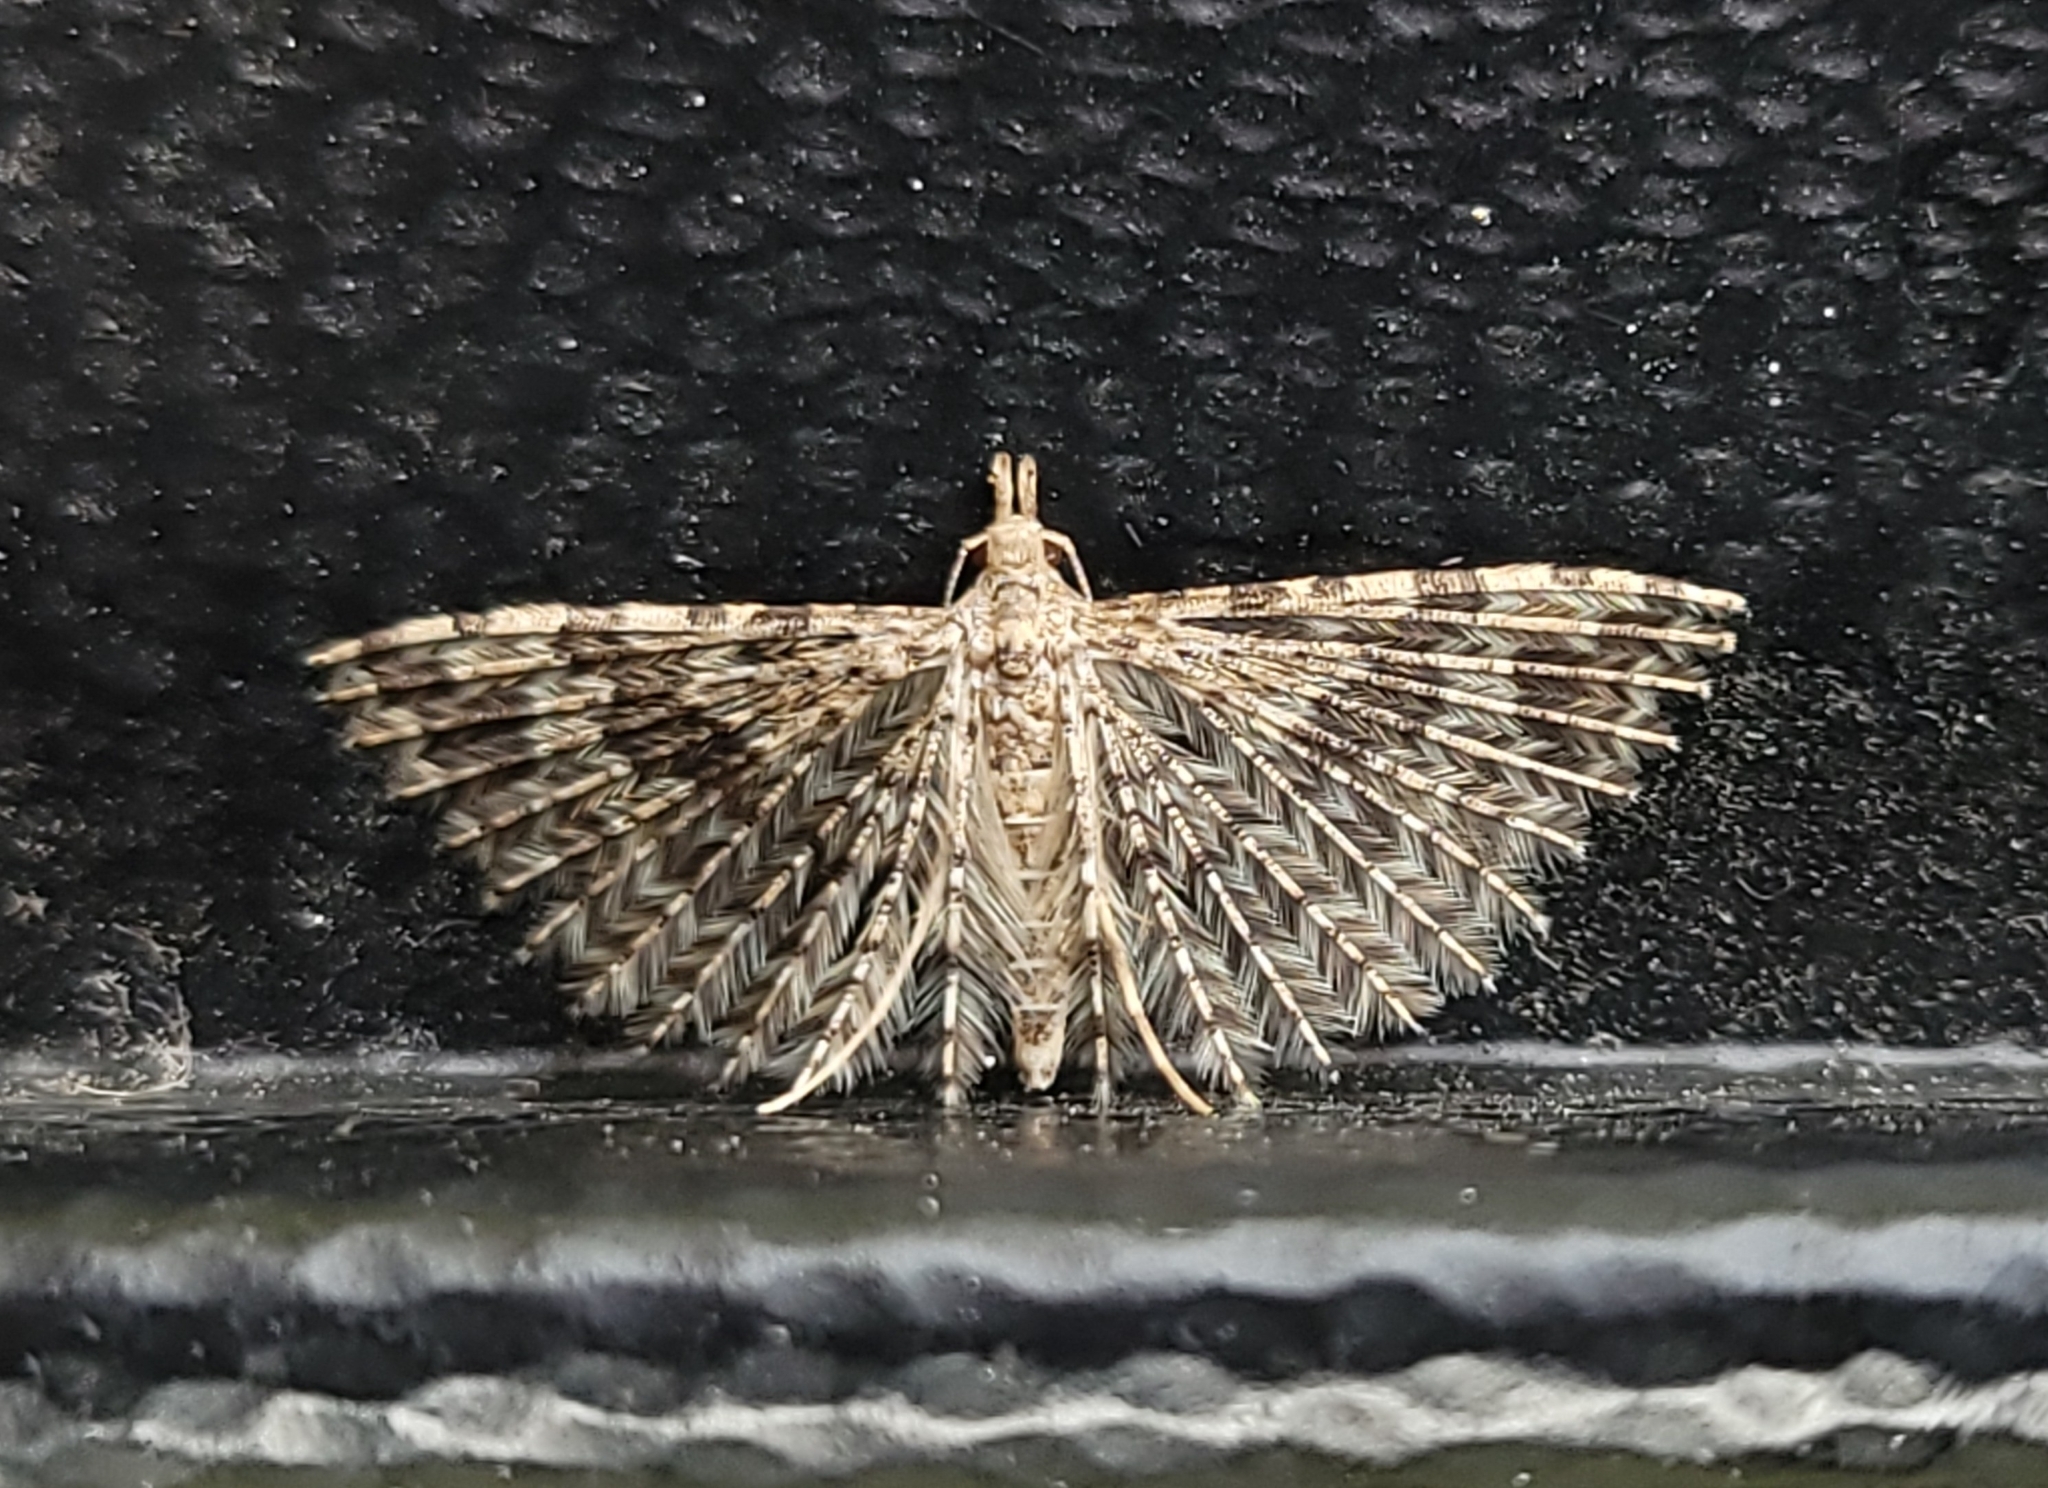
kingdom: Animalia
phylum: Arthropoda
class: Insecta
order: Lepidoptera
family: Alucitidae
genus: Alucita
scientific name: Alucita hexadactyla
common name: Twenty-plume moth
